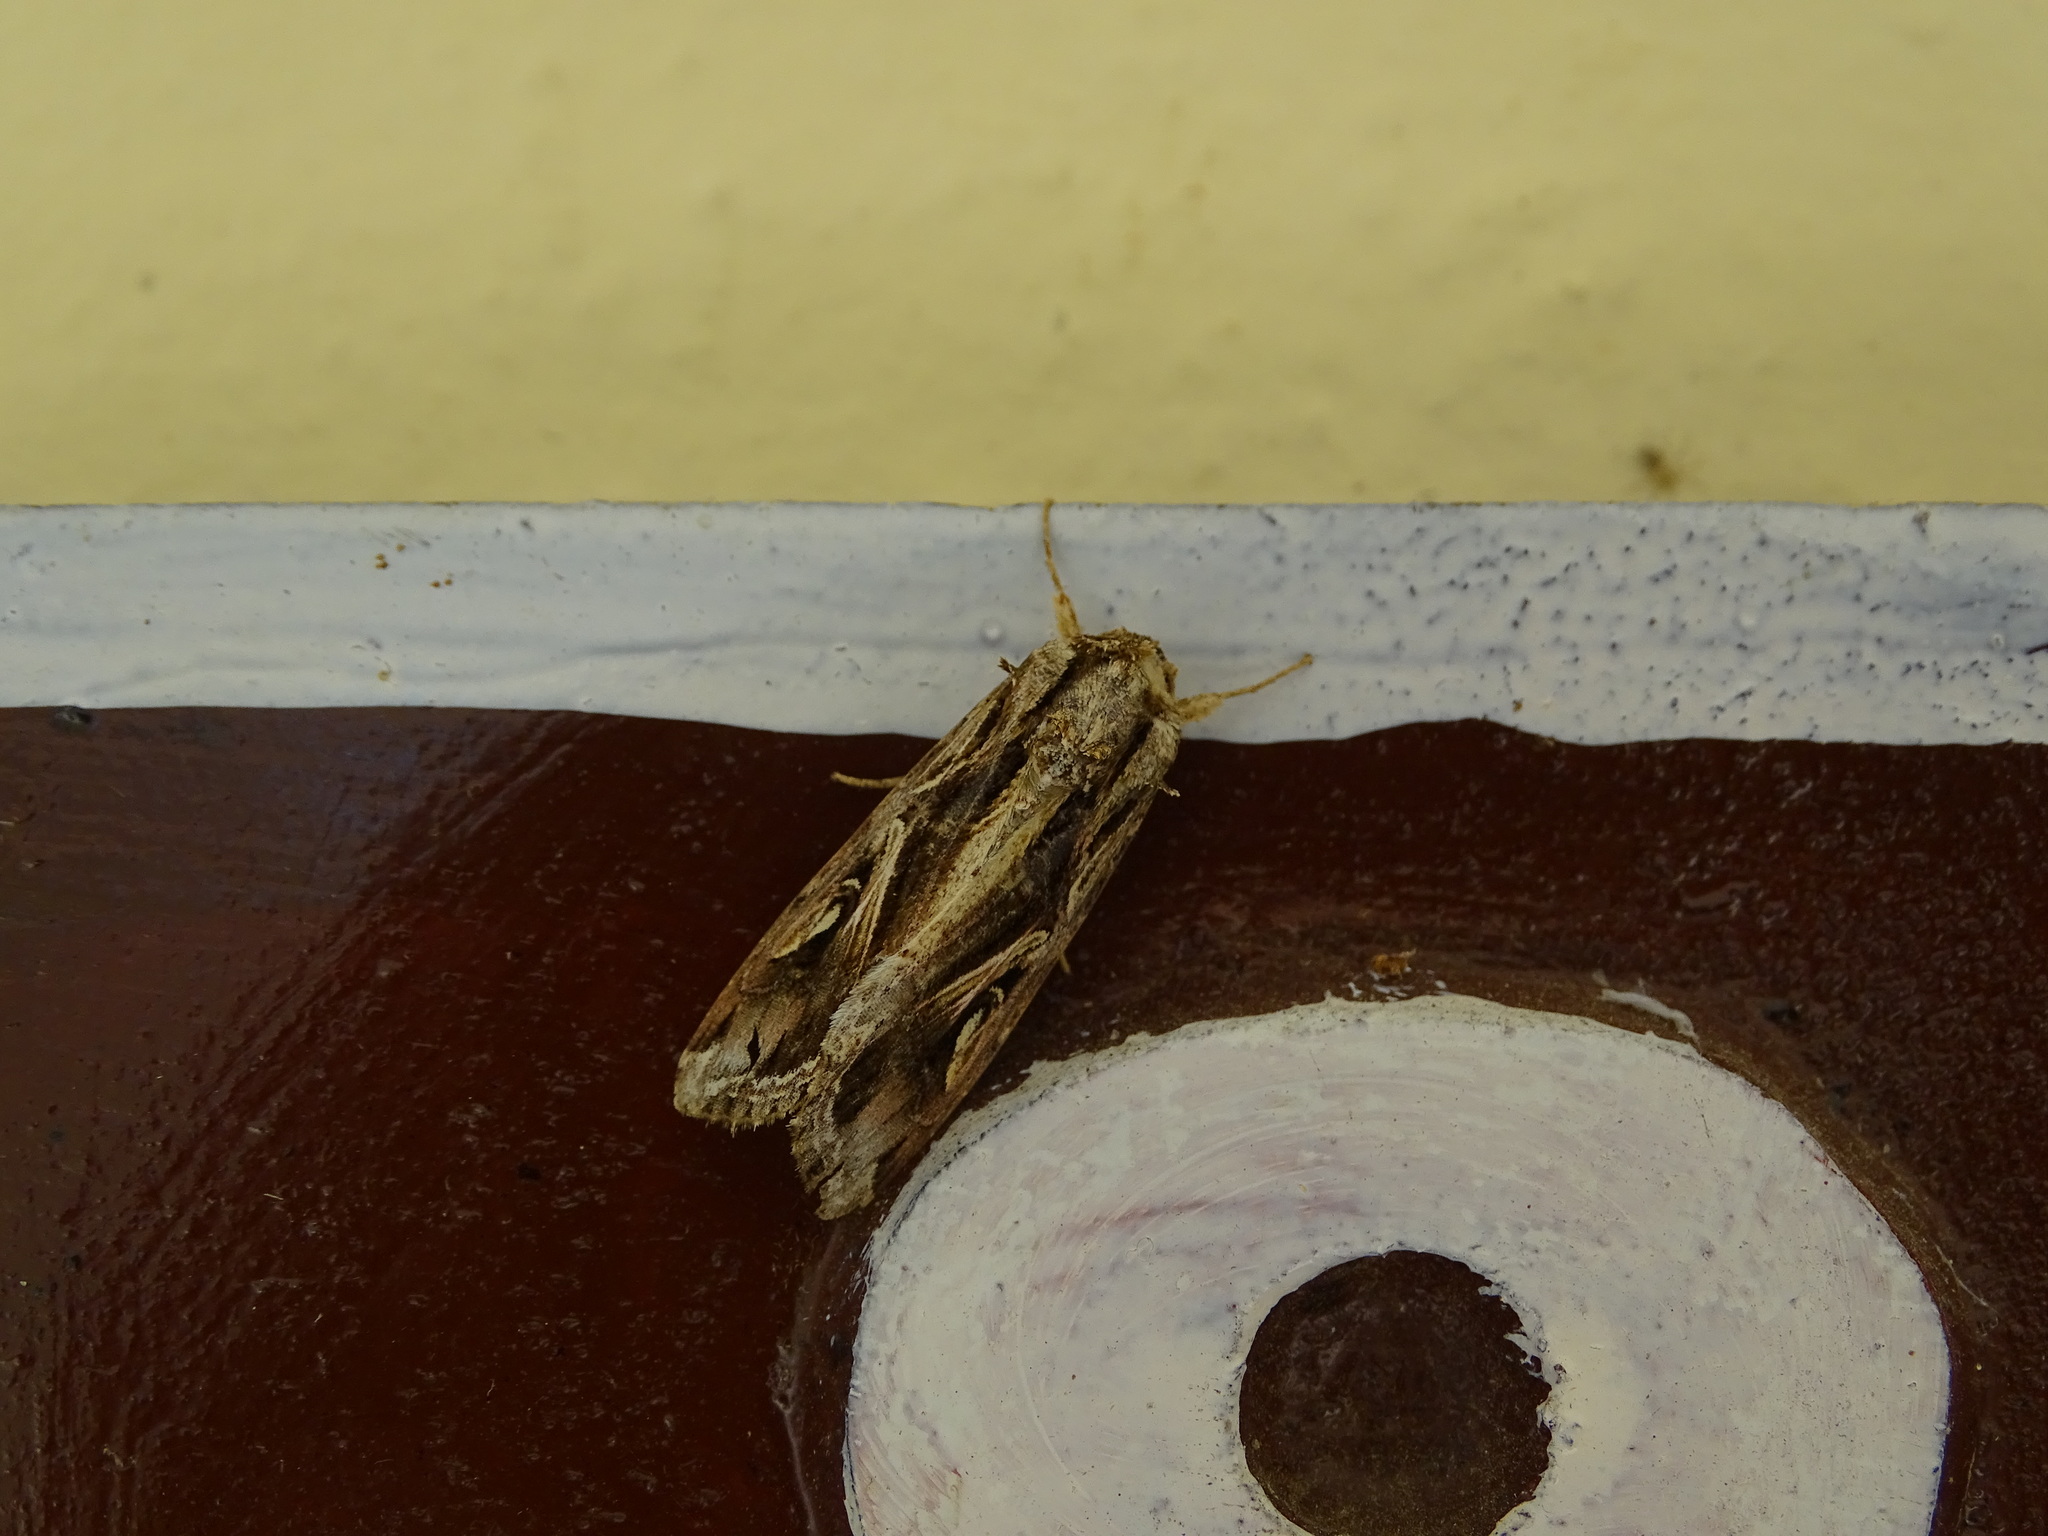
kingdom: Animalia
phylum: Arthropoda
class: Insecta
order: Lepidoptera
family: Noctuidae
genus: Spodoptera
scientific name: Spodoptera dolichos
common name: Sweetpotato armyworm
